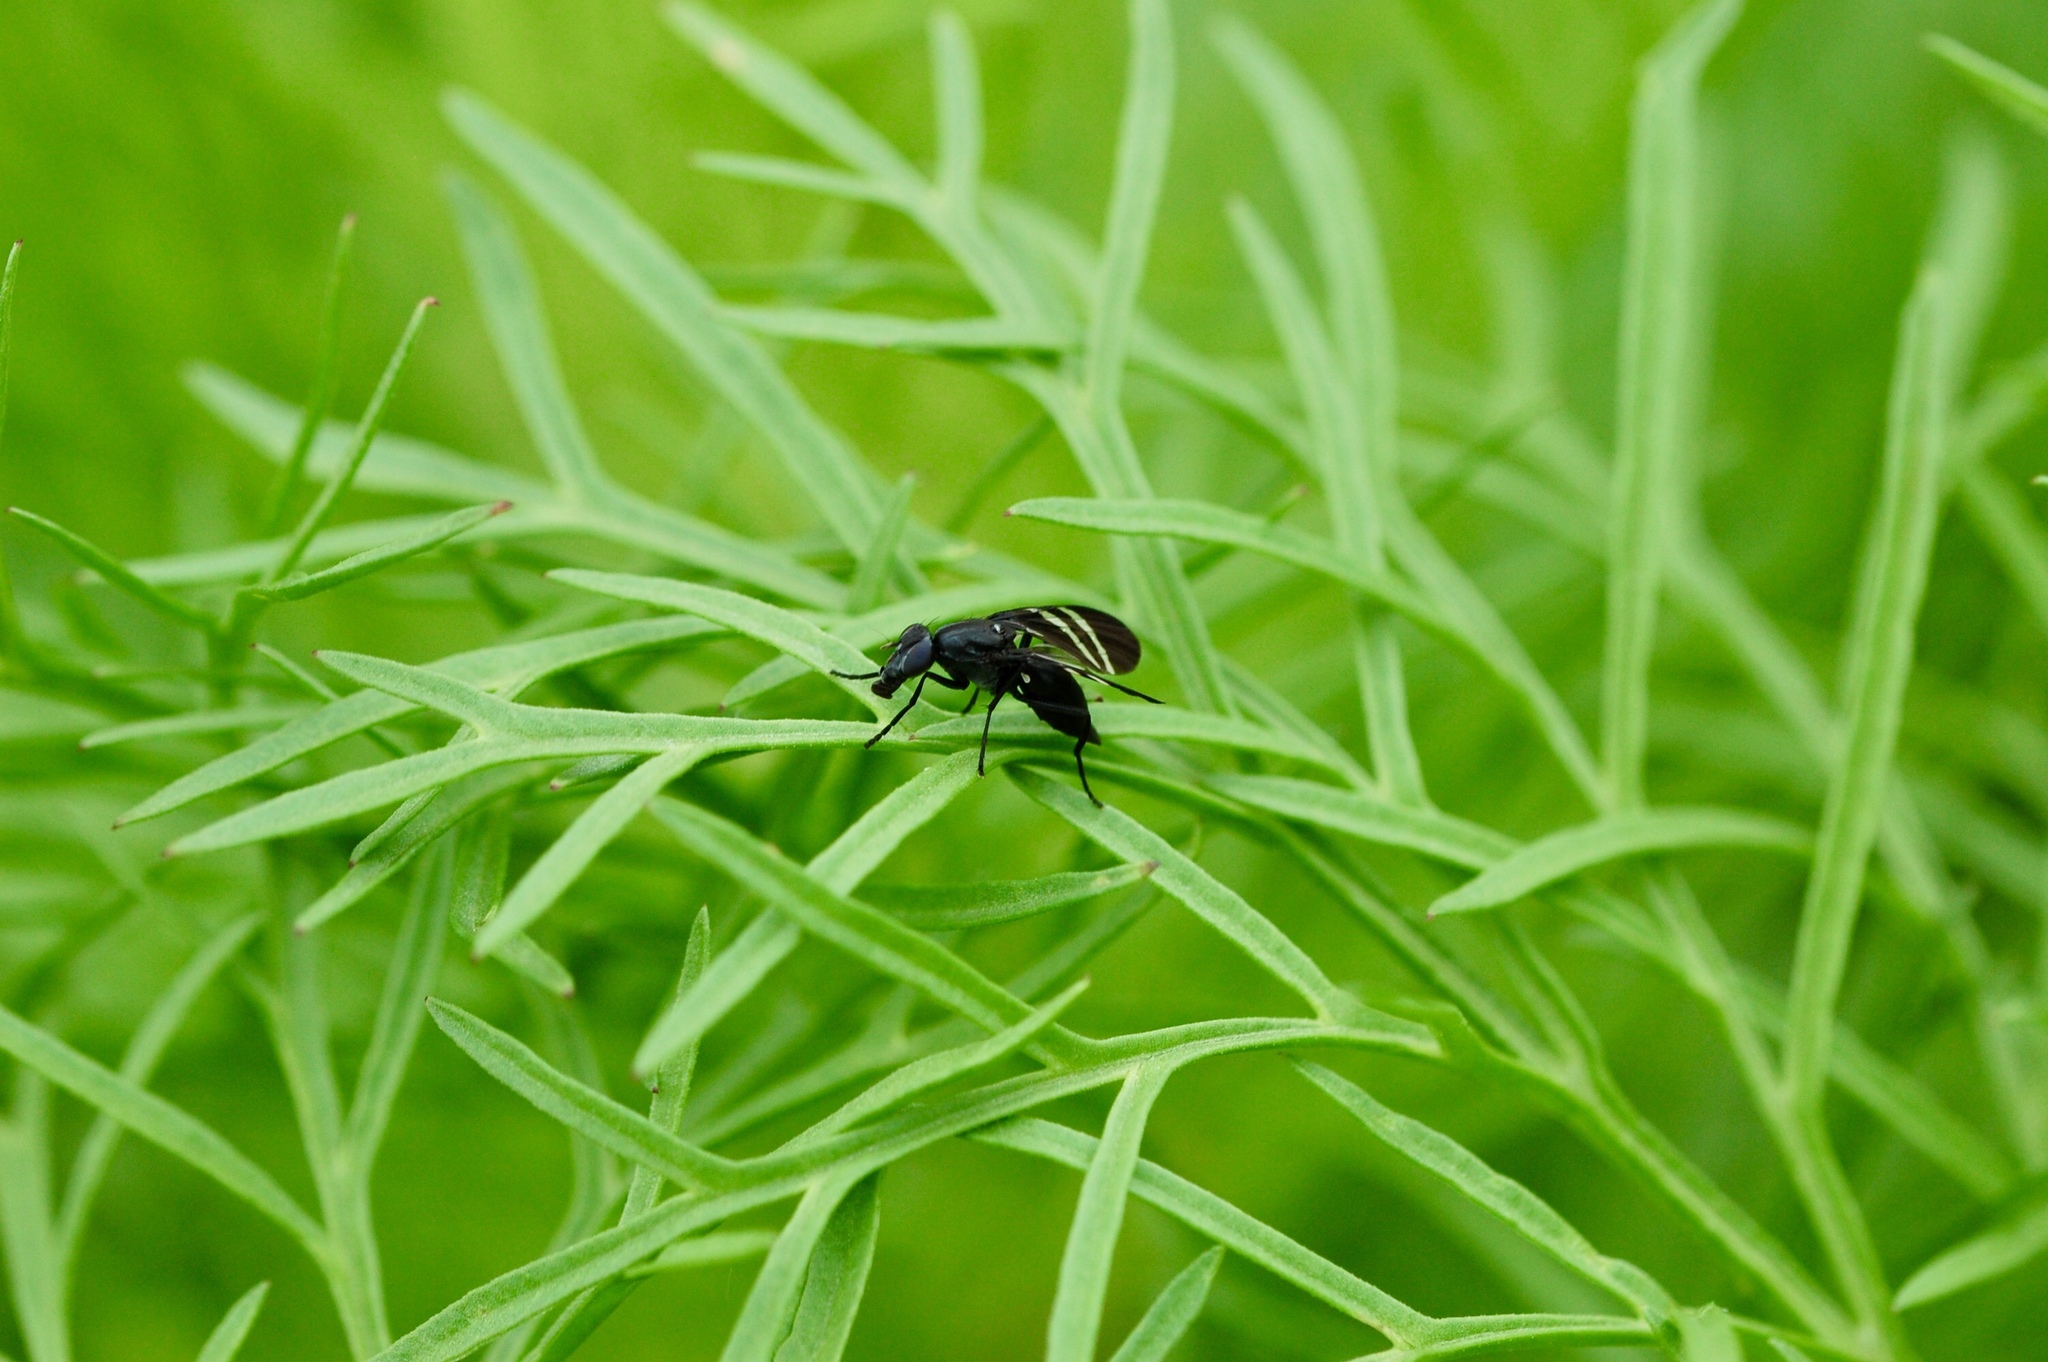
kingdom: Animalia
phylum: Arthropoda
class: Insecta
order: Diptera
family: Ulidiidae
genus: Tritoxa
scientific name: Tritoxa flexa
